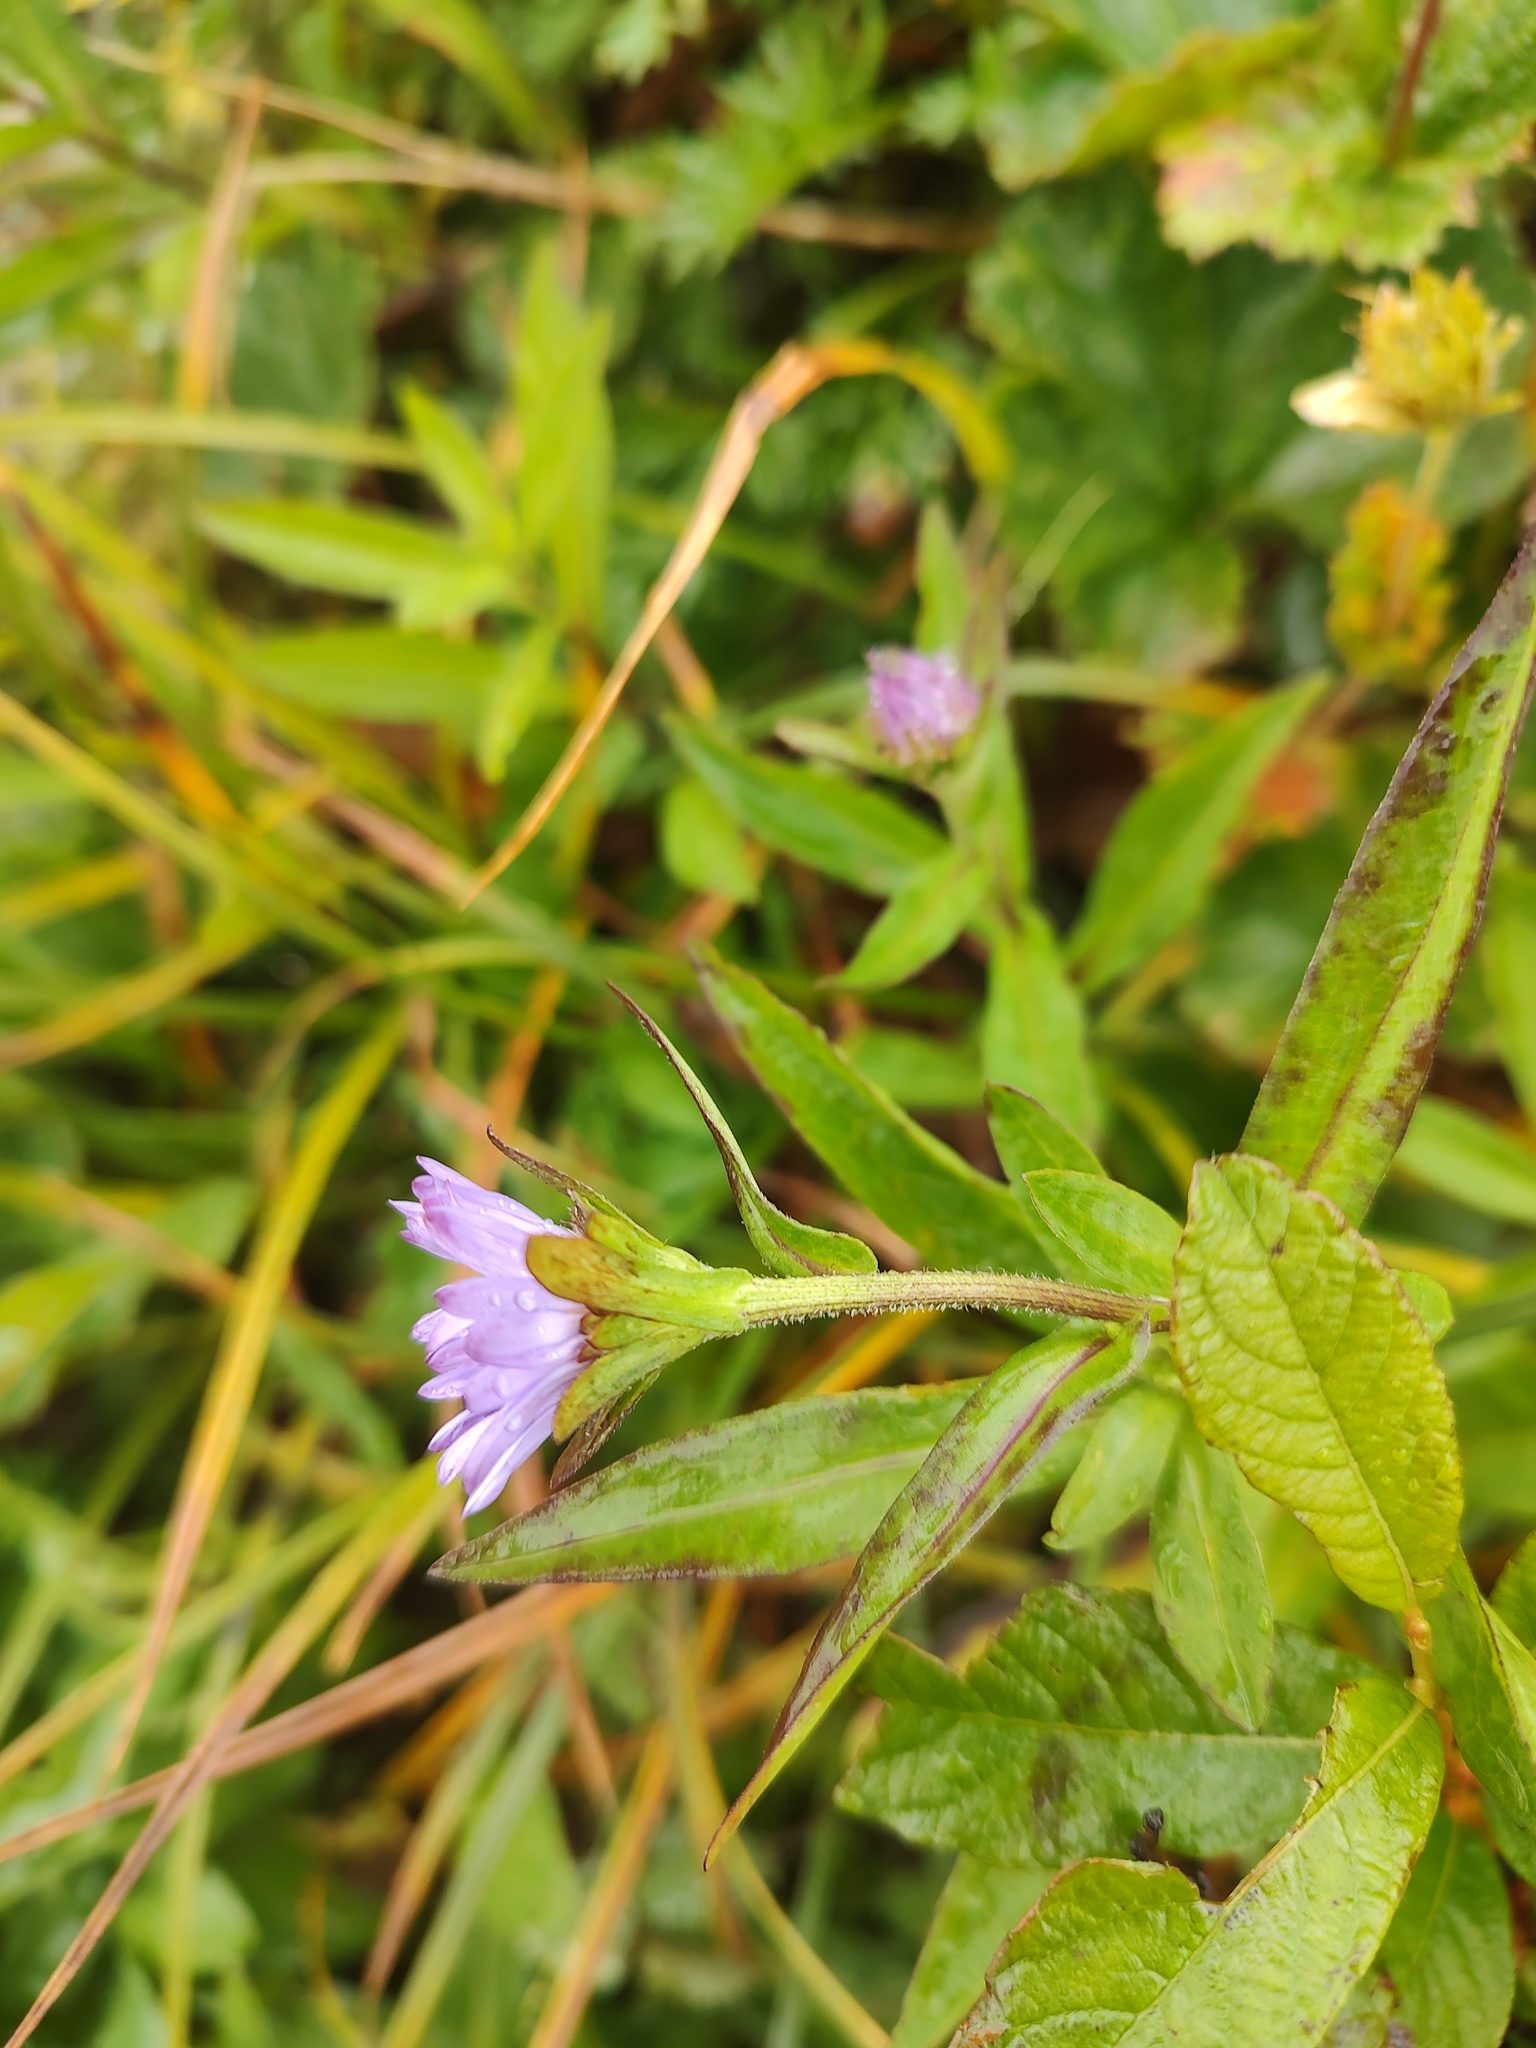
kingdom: Plantae
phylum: Tracheophyta
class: Magnoliopsida
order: Asterales
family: Asteraceae
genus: Symphyotrichum
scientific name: Symphyotrichum subspicatum
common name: Douglas' aster
